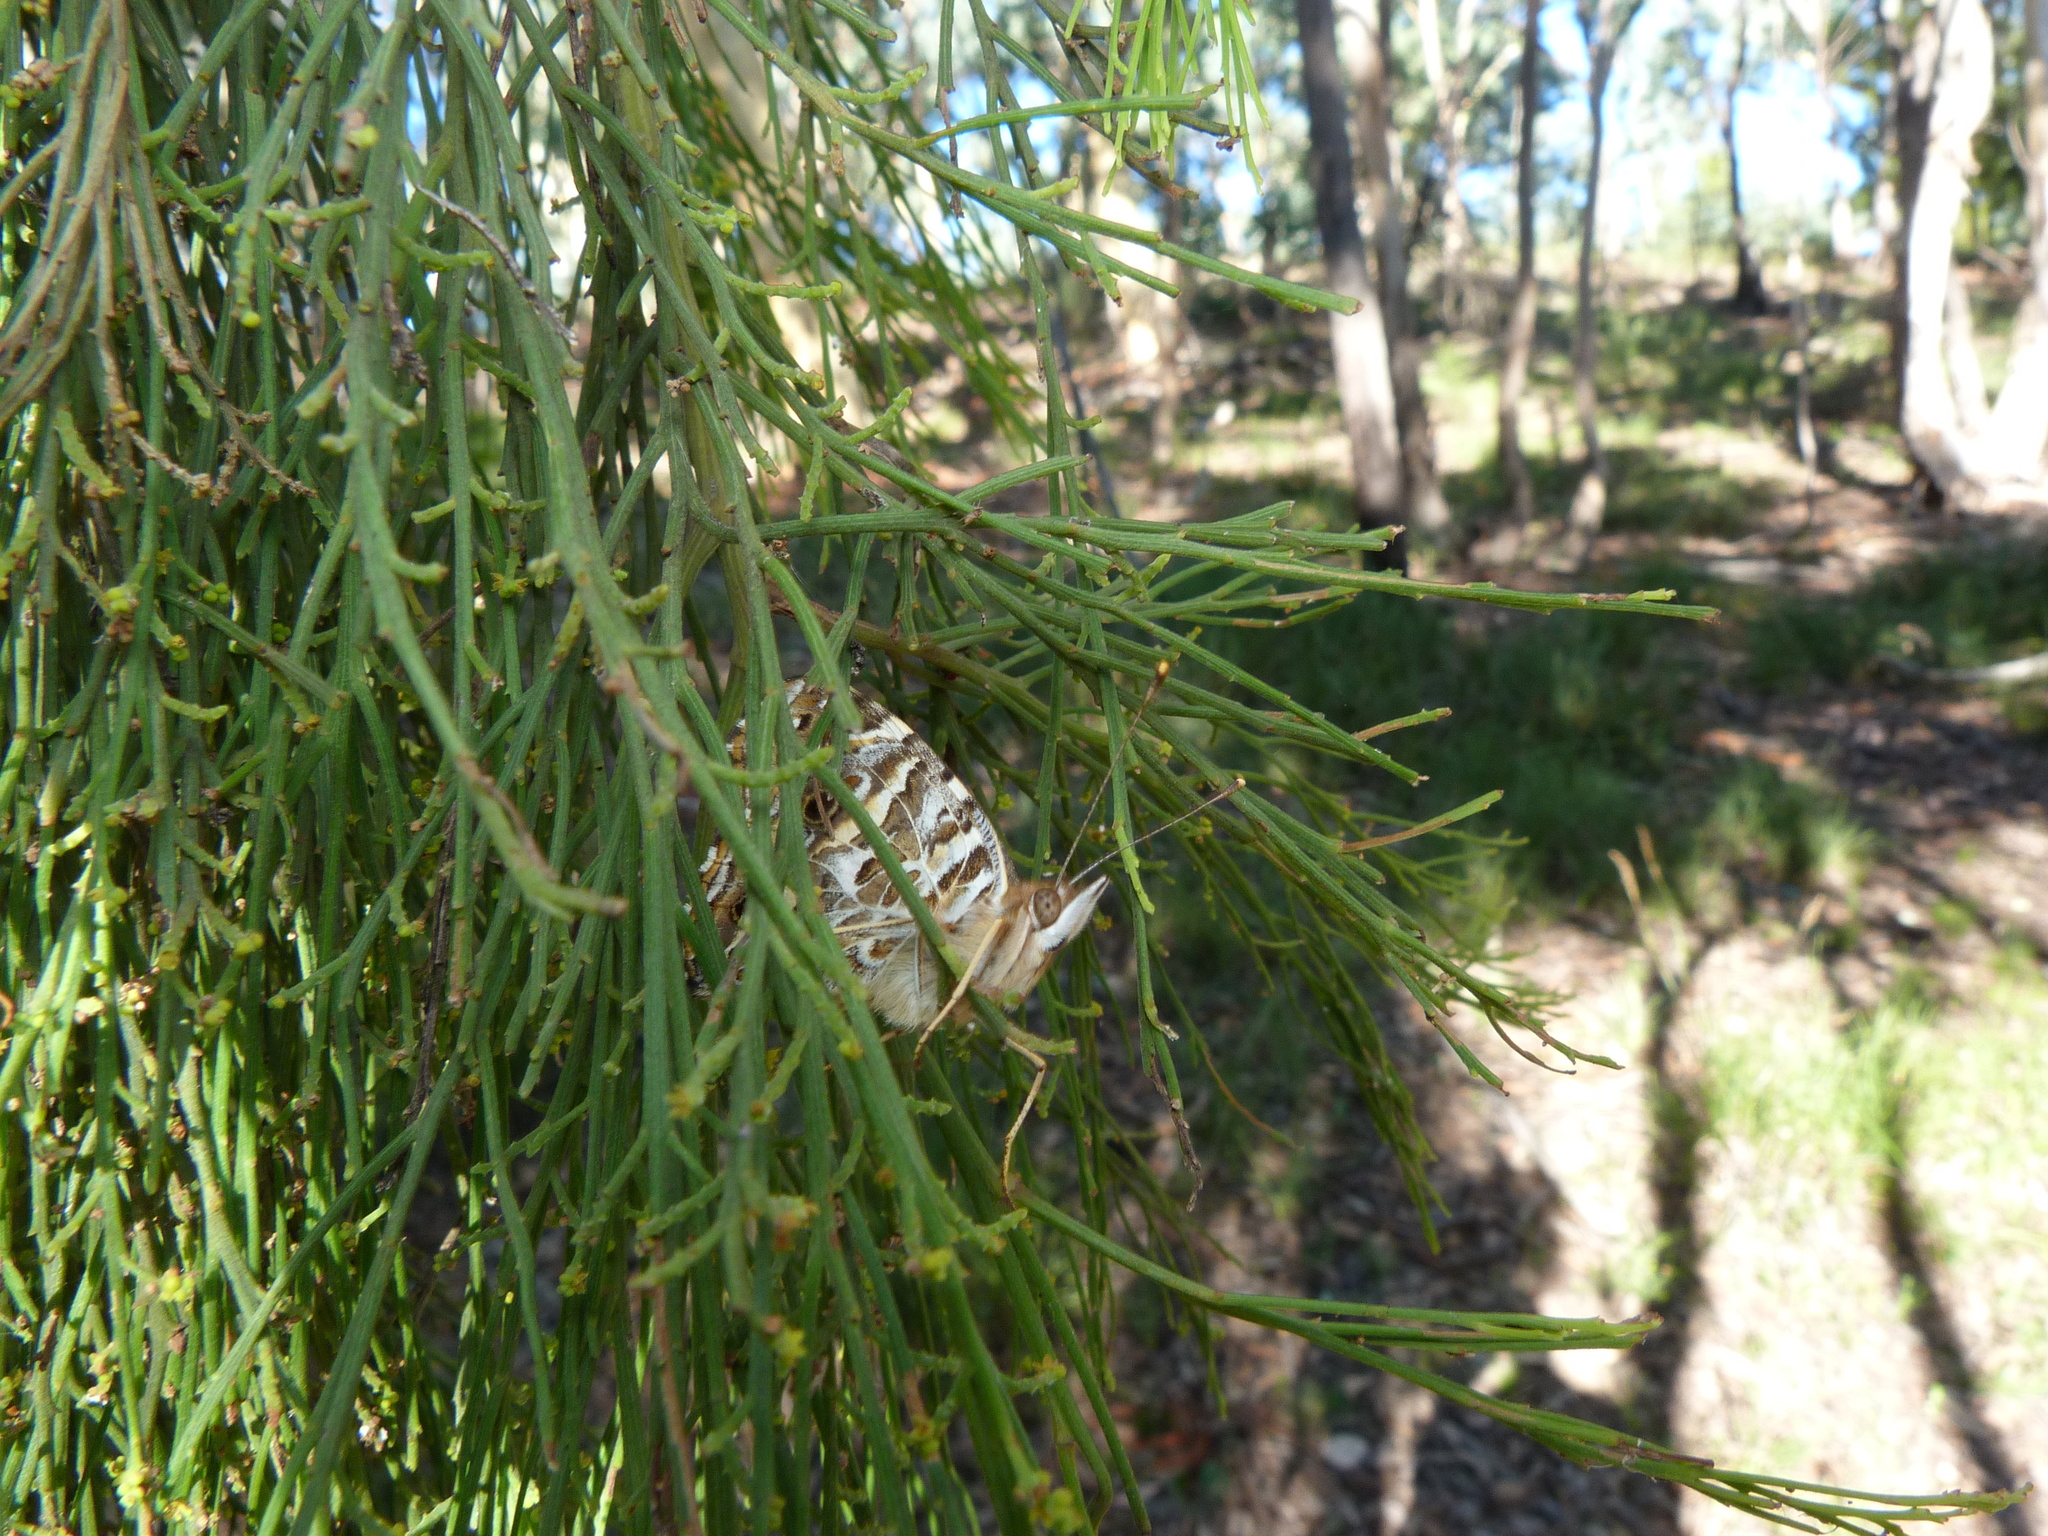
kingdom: Plantae
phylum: Tracheophyta
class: Magnoliopsida
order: Santalales
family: Santalaceae
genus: Exocarpos
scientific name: Exocarpos cupressiformis
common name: Cherry ballart
